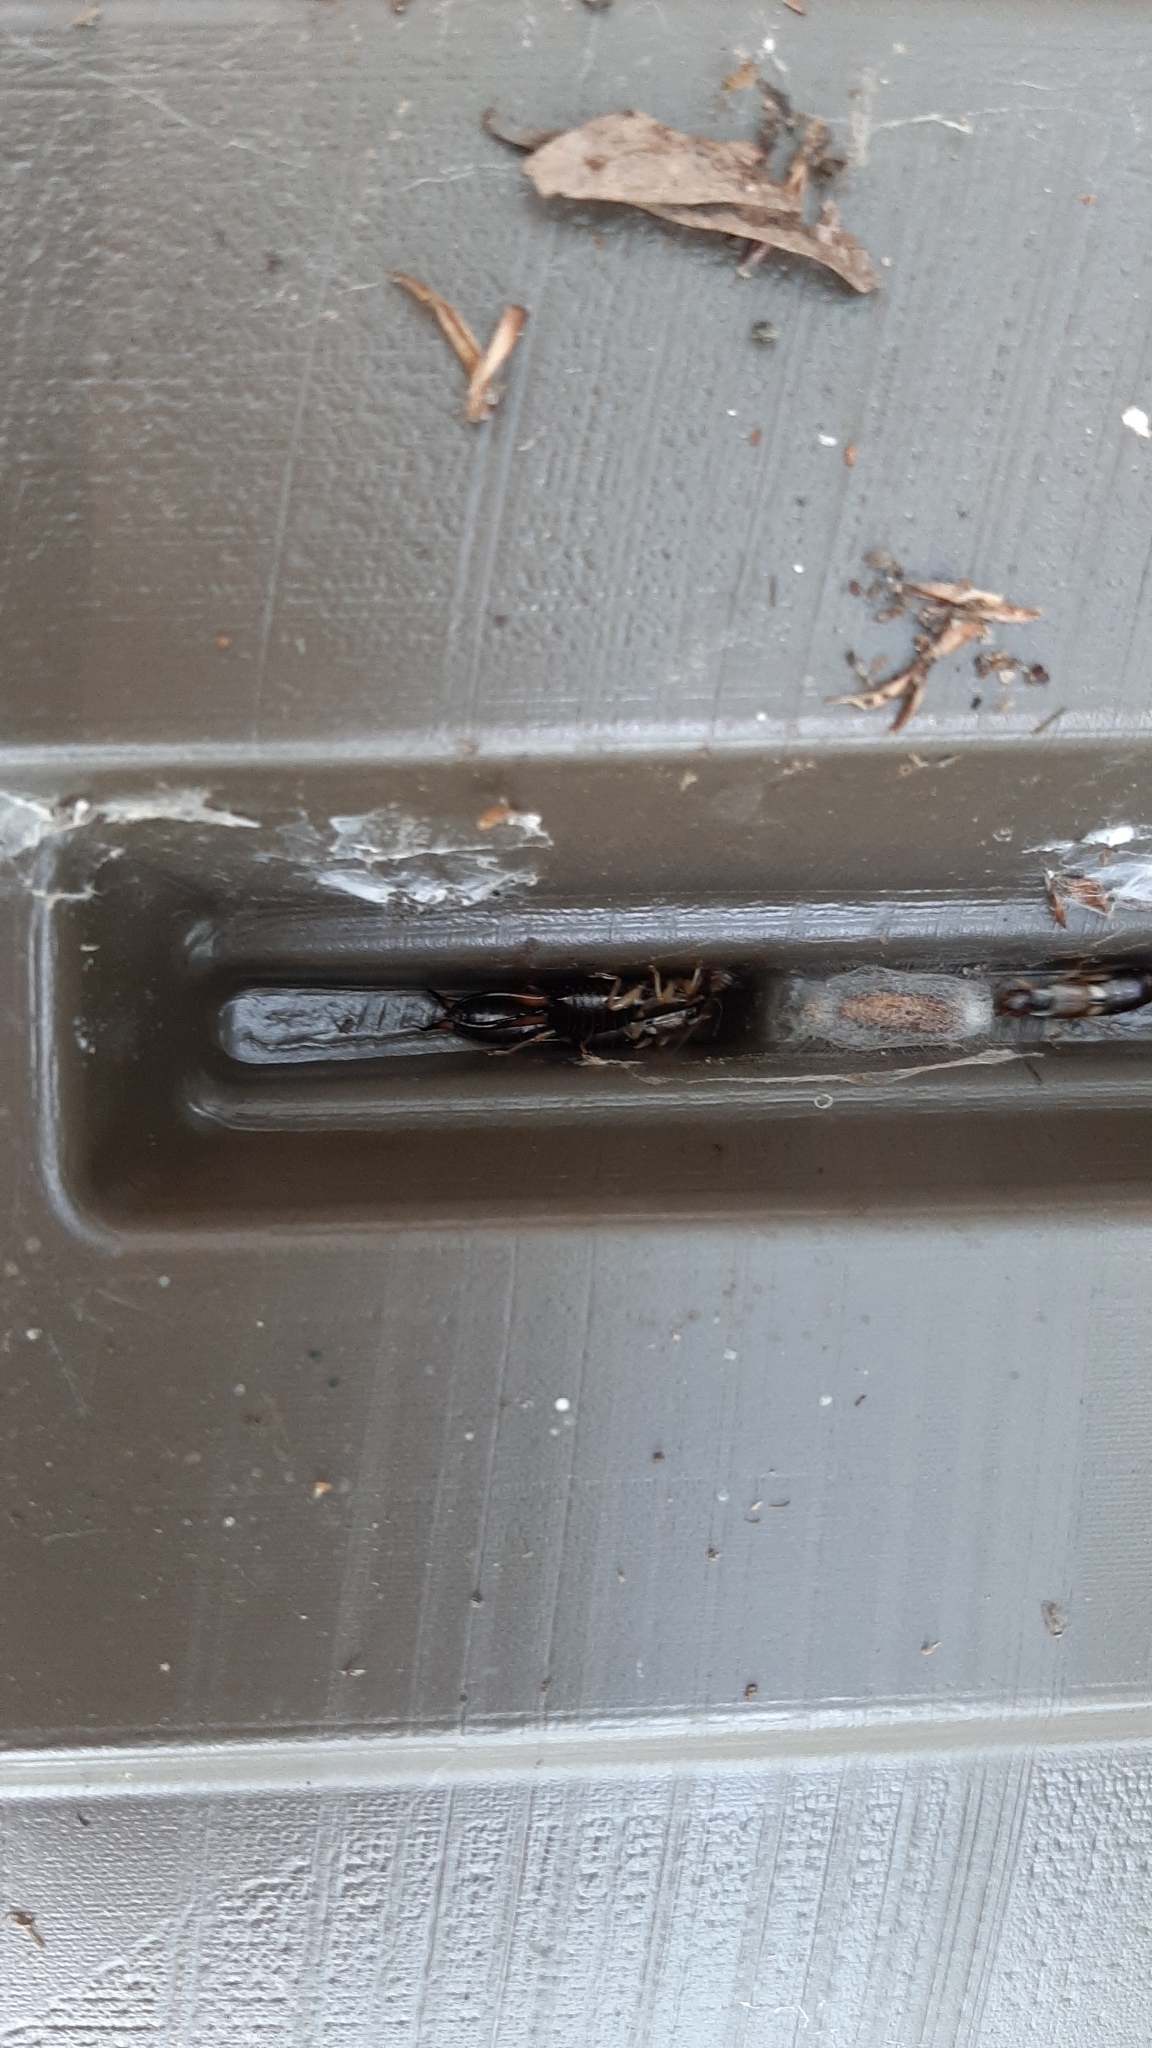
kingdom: Animalia
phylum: Arthropoda
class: Insecta
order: Dermaptera
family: Forficulidae
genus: Forficula
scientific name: Forficula
